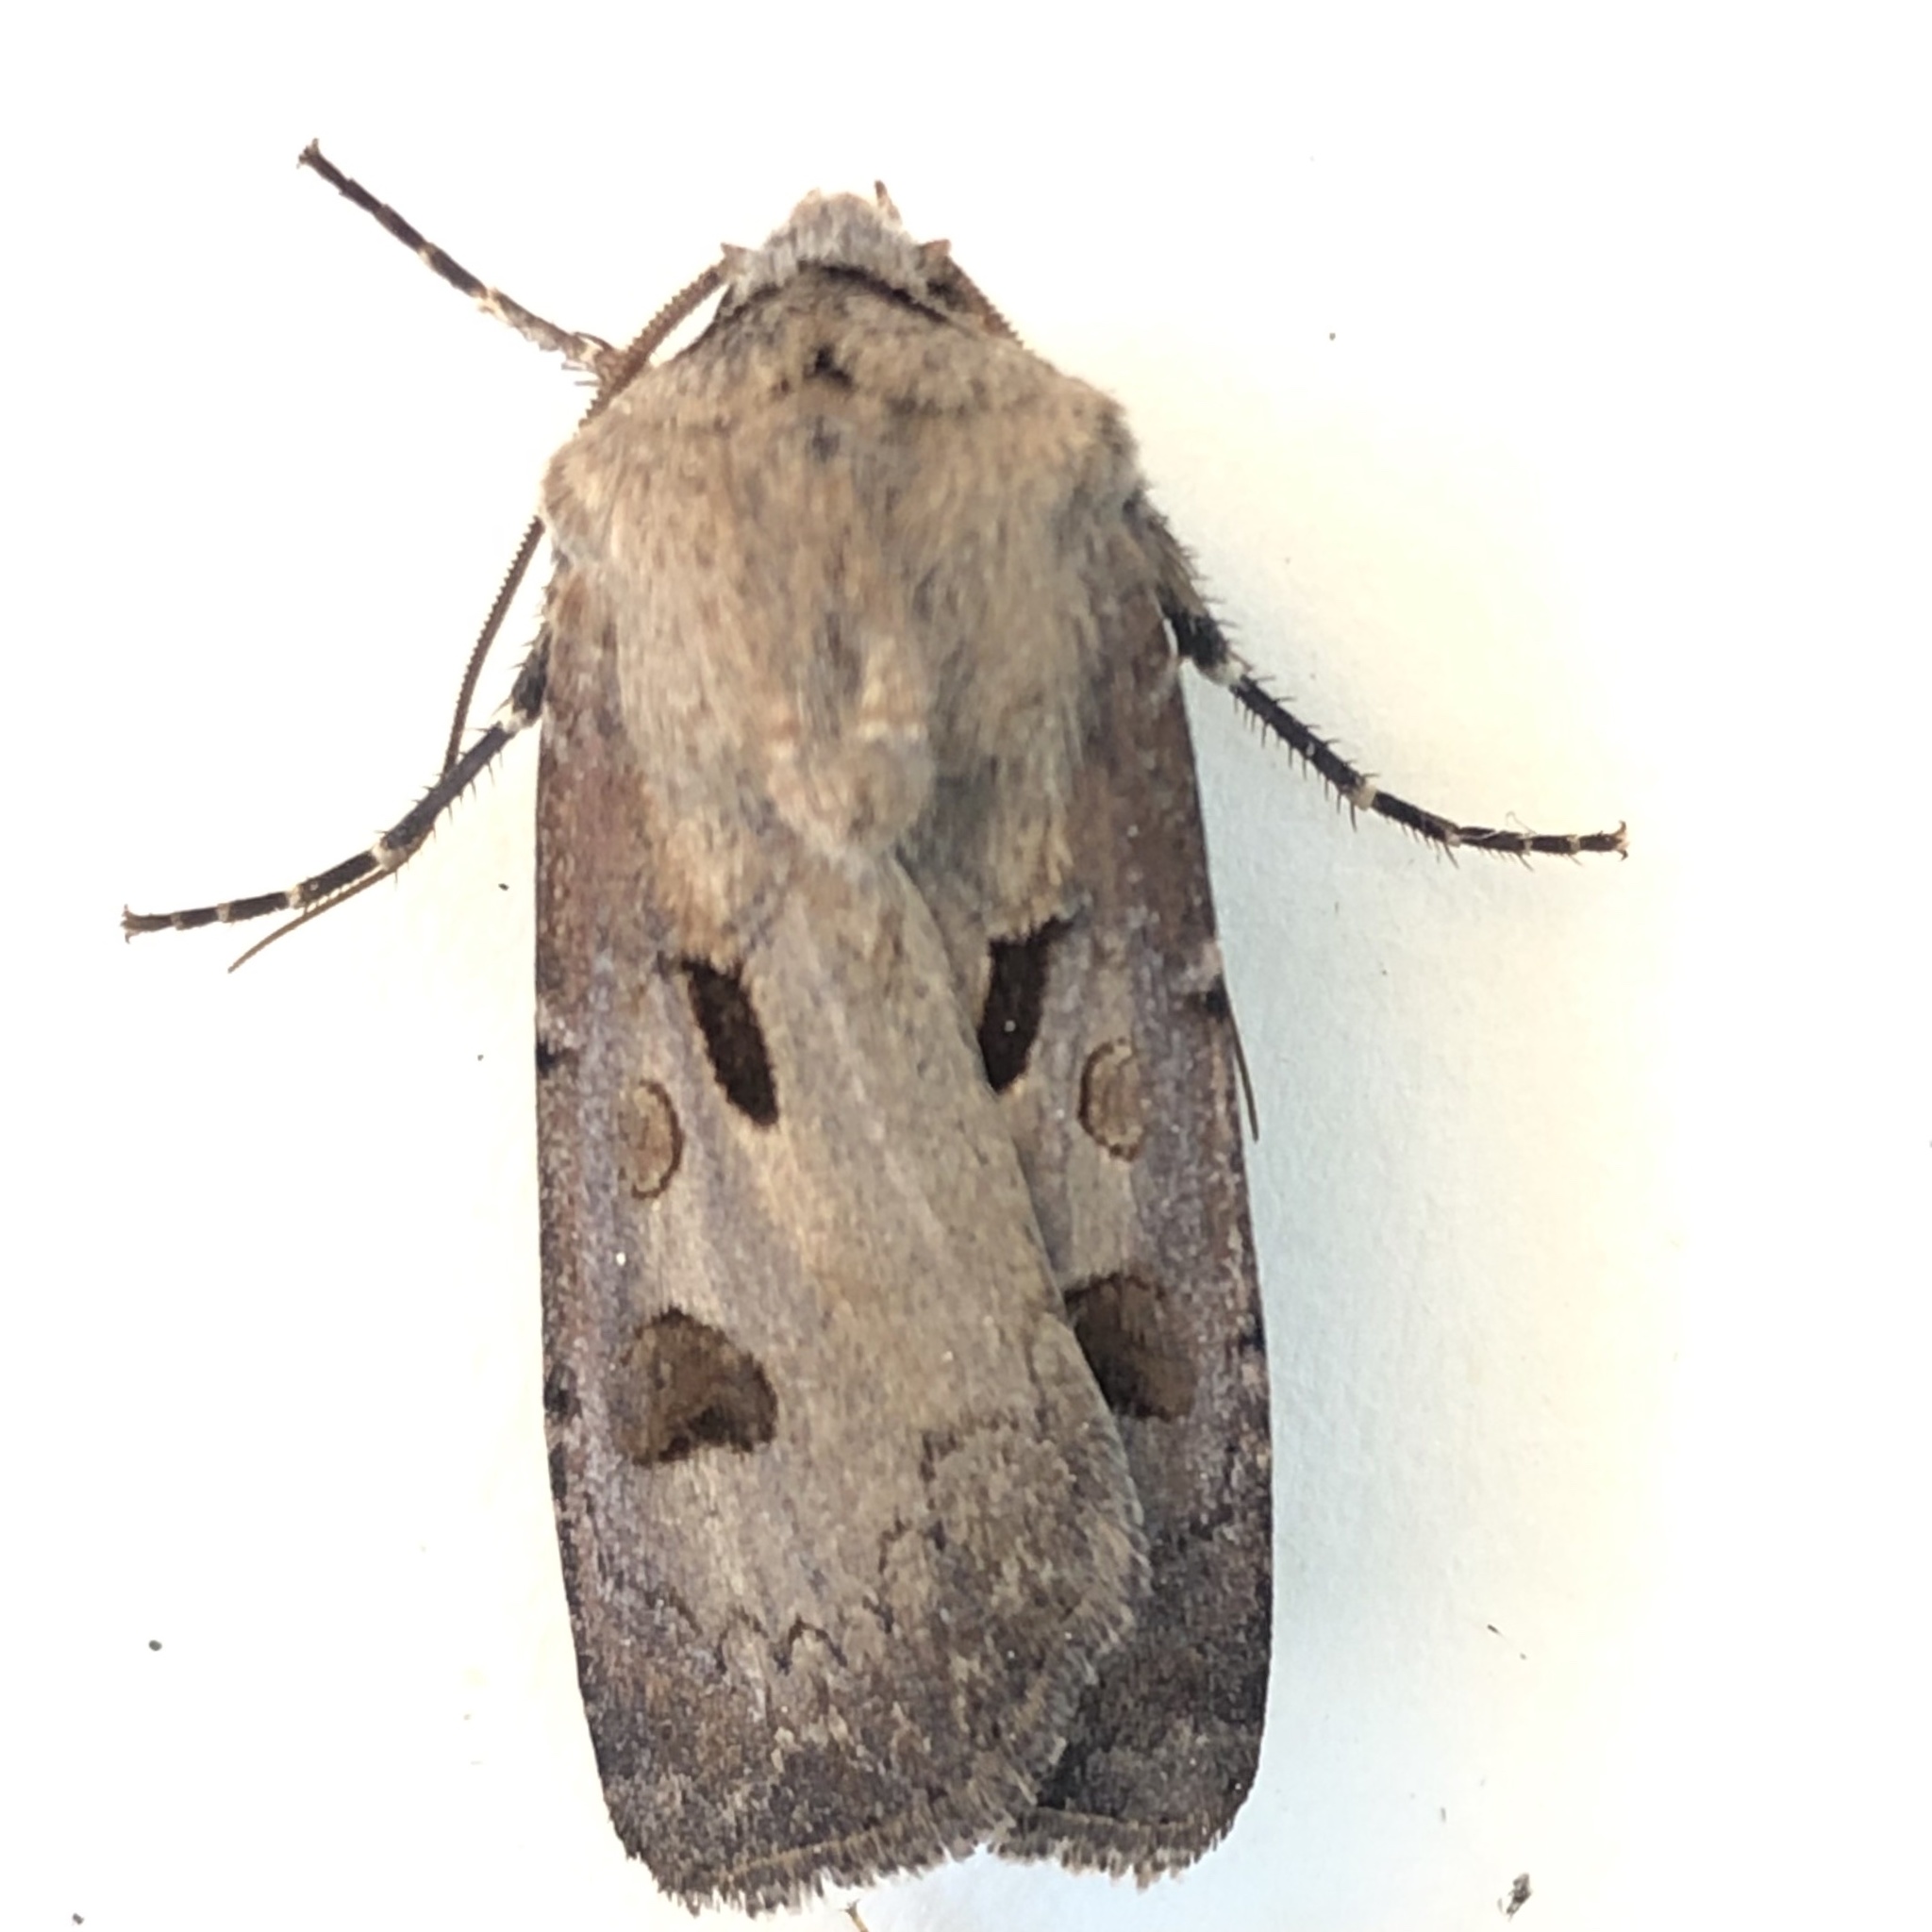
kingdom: Animalia
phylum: Arthropoda
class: Insecta
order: Lepidoptera
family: Noctuidae
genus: Agrotis
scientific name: Agrotis exclamationis
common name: Heart and dart
